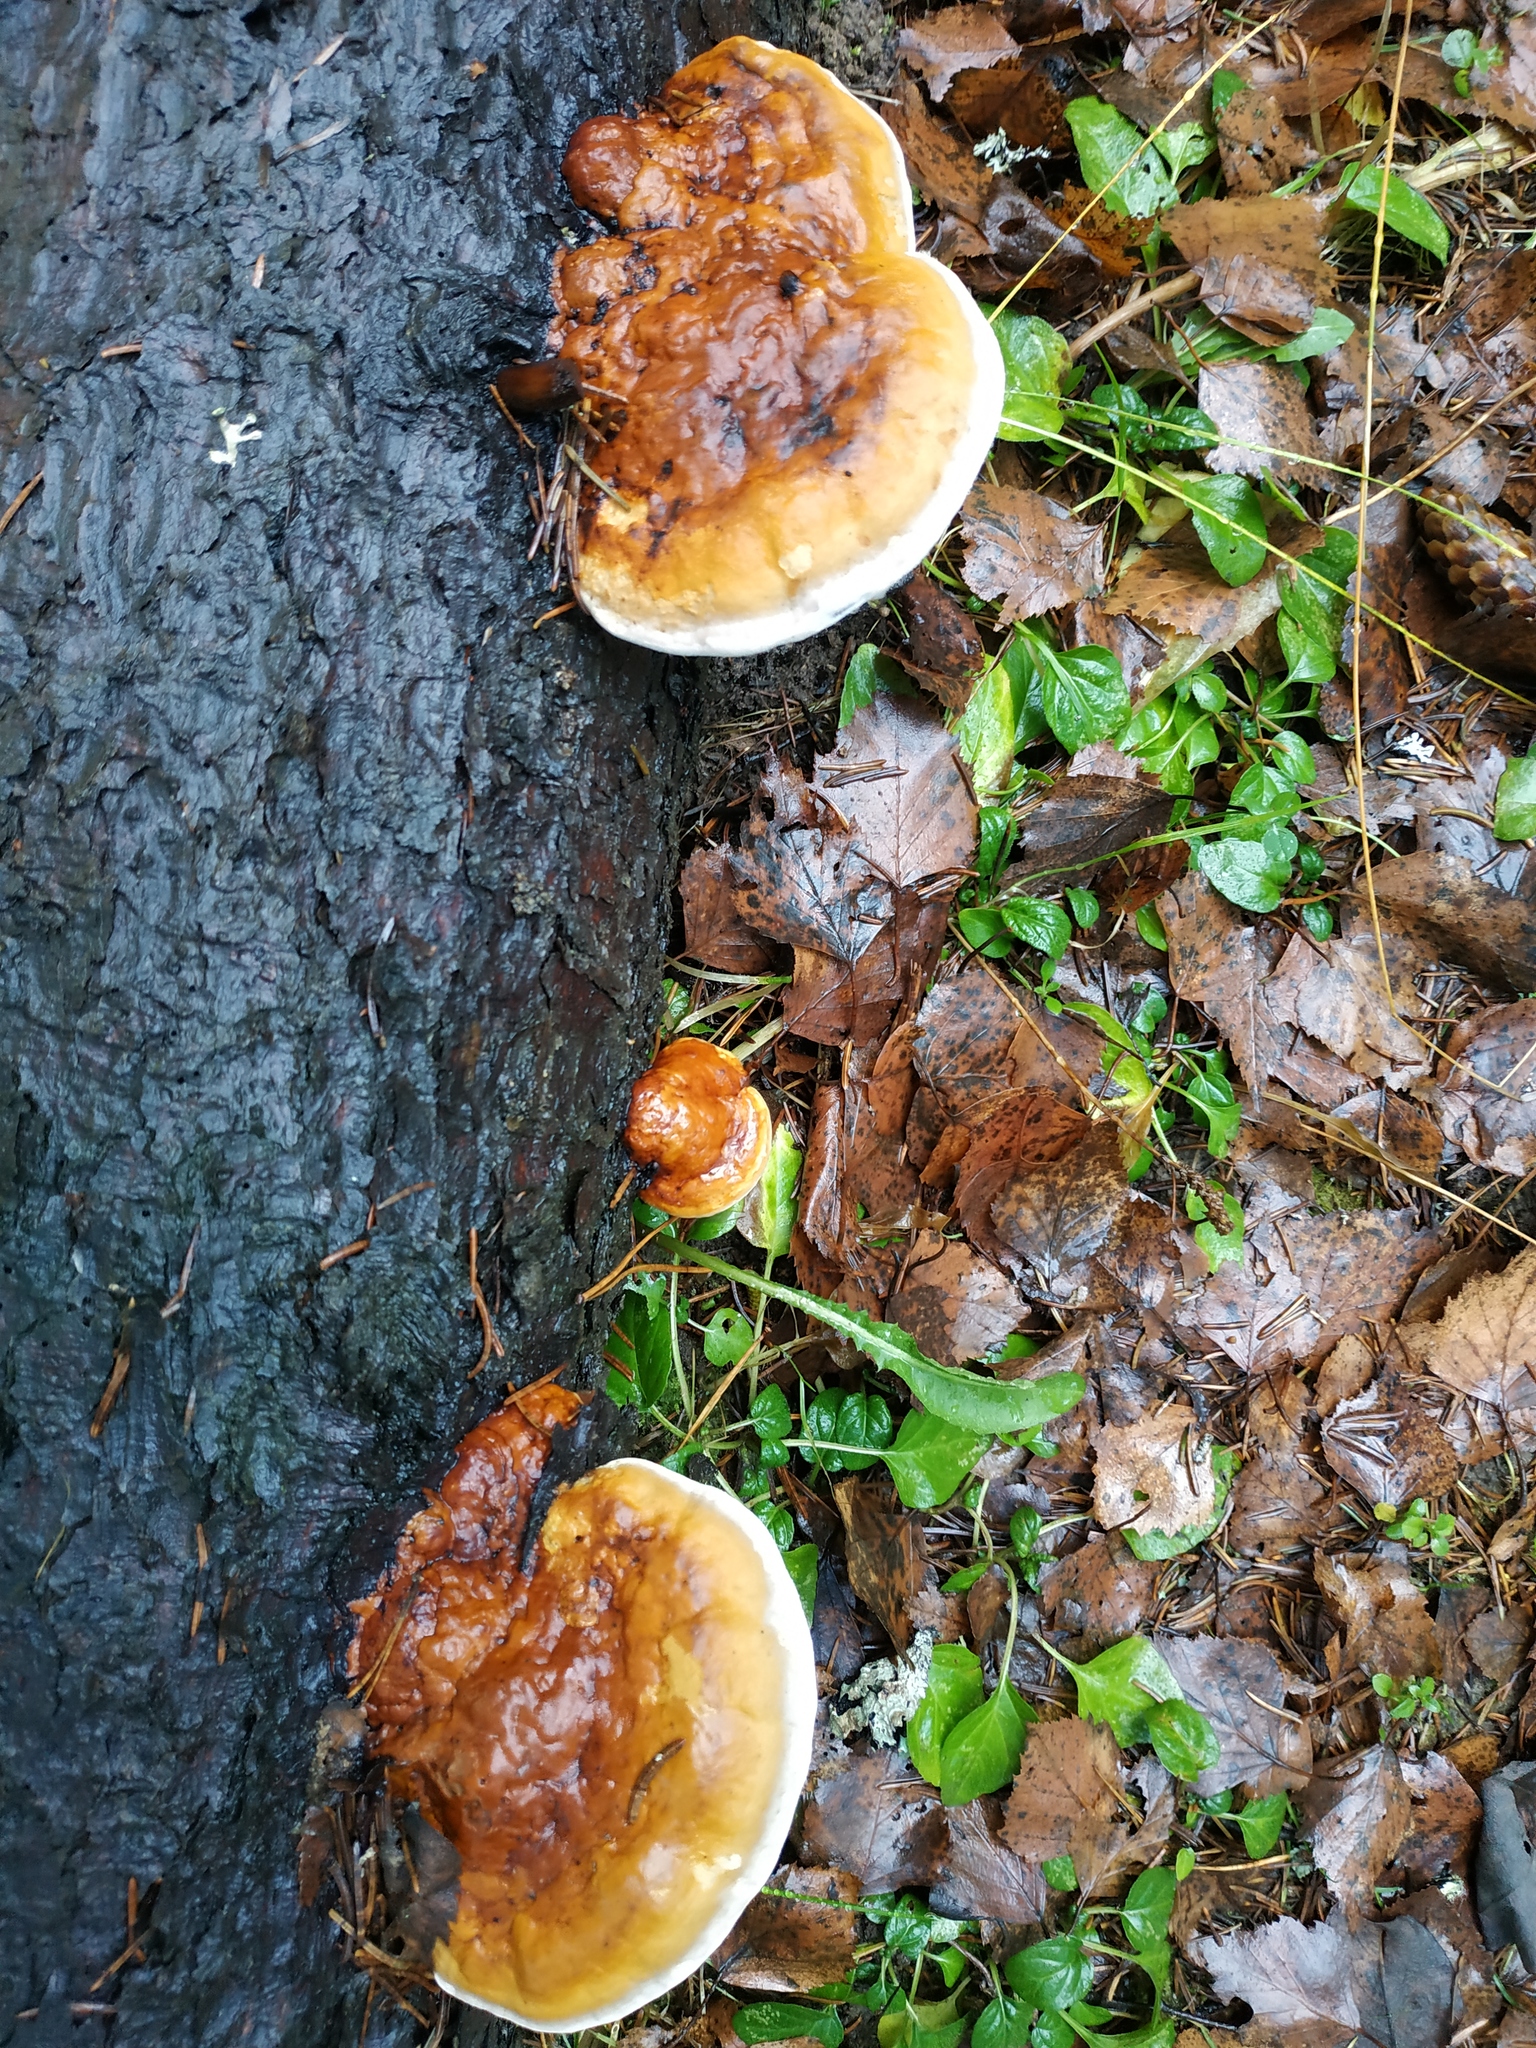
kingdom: Fungi
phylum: Basidiomycota
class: Agaricomycetes
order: Polyporales
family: Fomitopsidaceae
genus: Fomitopsis
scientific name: Fomitopsis pinicola
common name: Red-belted bracket
